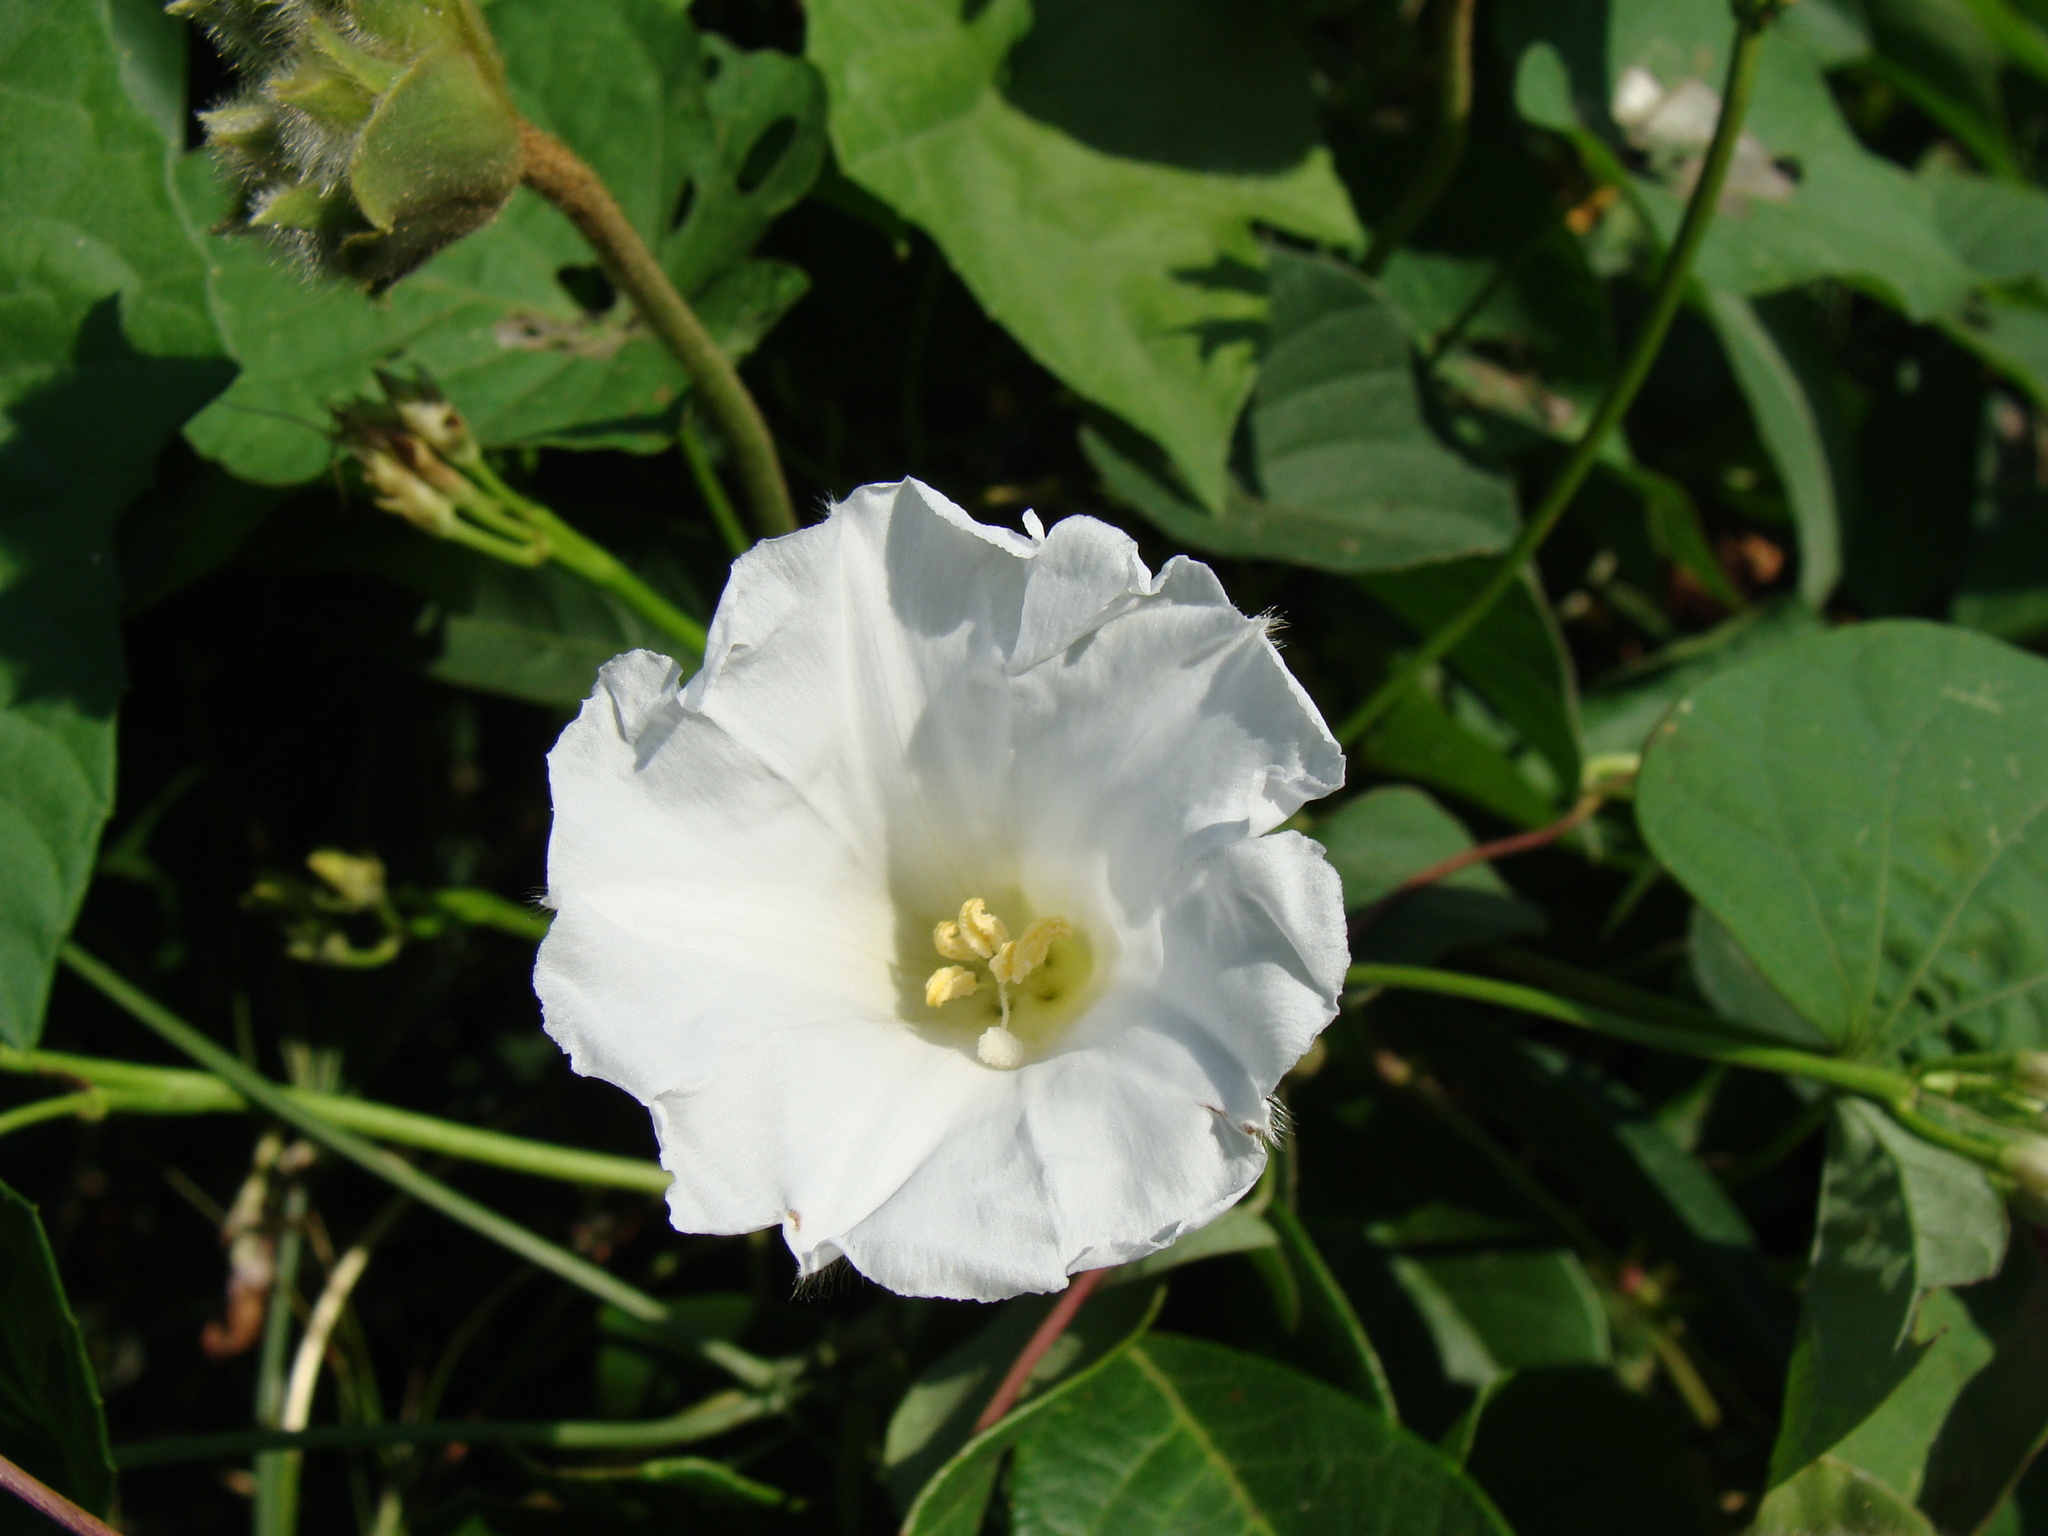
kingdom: Plantae
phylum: Tracheophyta
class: Magnoliopsida
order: Solanales
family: Convolvulaceae
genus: Odonellia
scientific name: Odonellia hirtiflora
